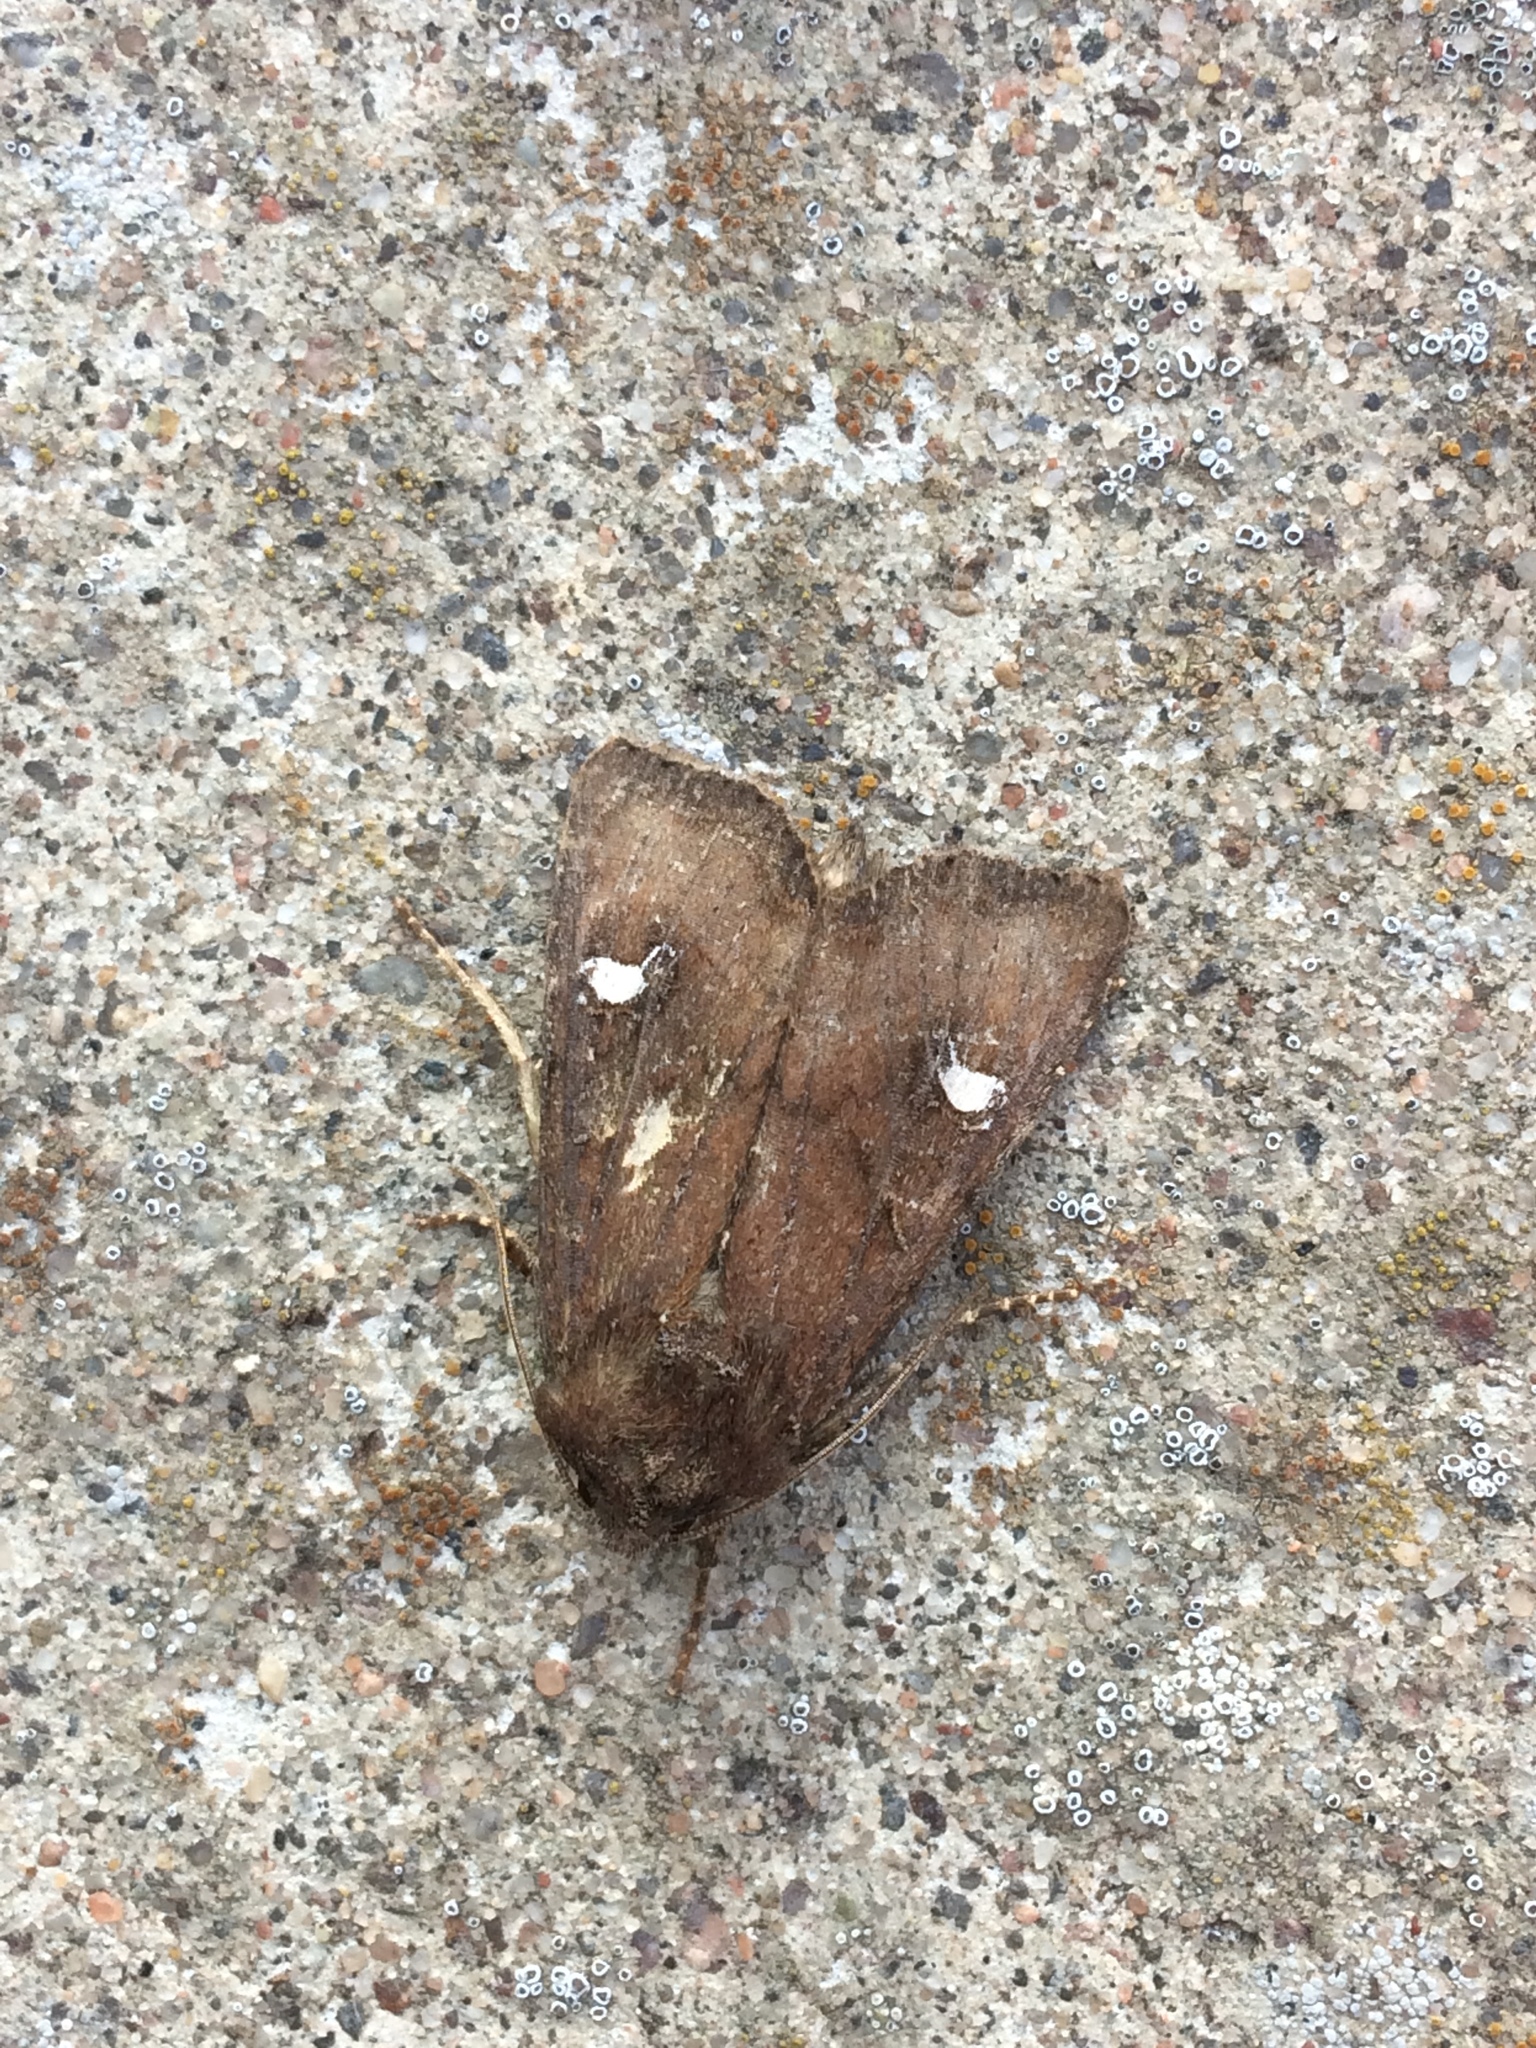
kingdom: Animalia
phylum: Arthropoda
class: Insecta
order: Lepidoptera
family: Noctuidae
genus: Helotropha
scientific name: Helotropha leucostigma
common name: The crescent
